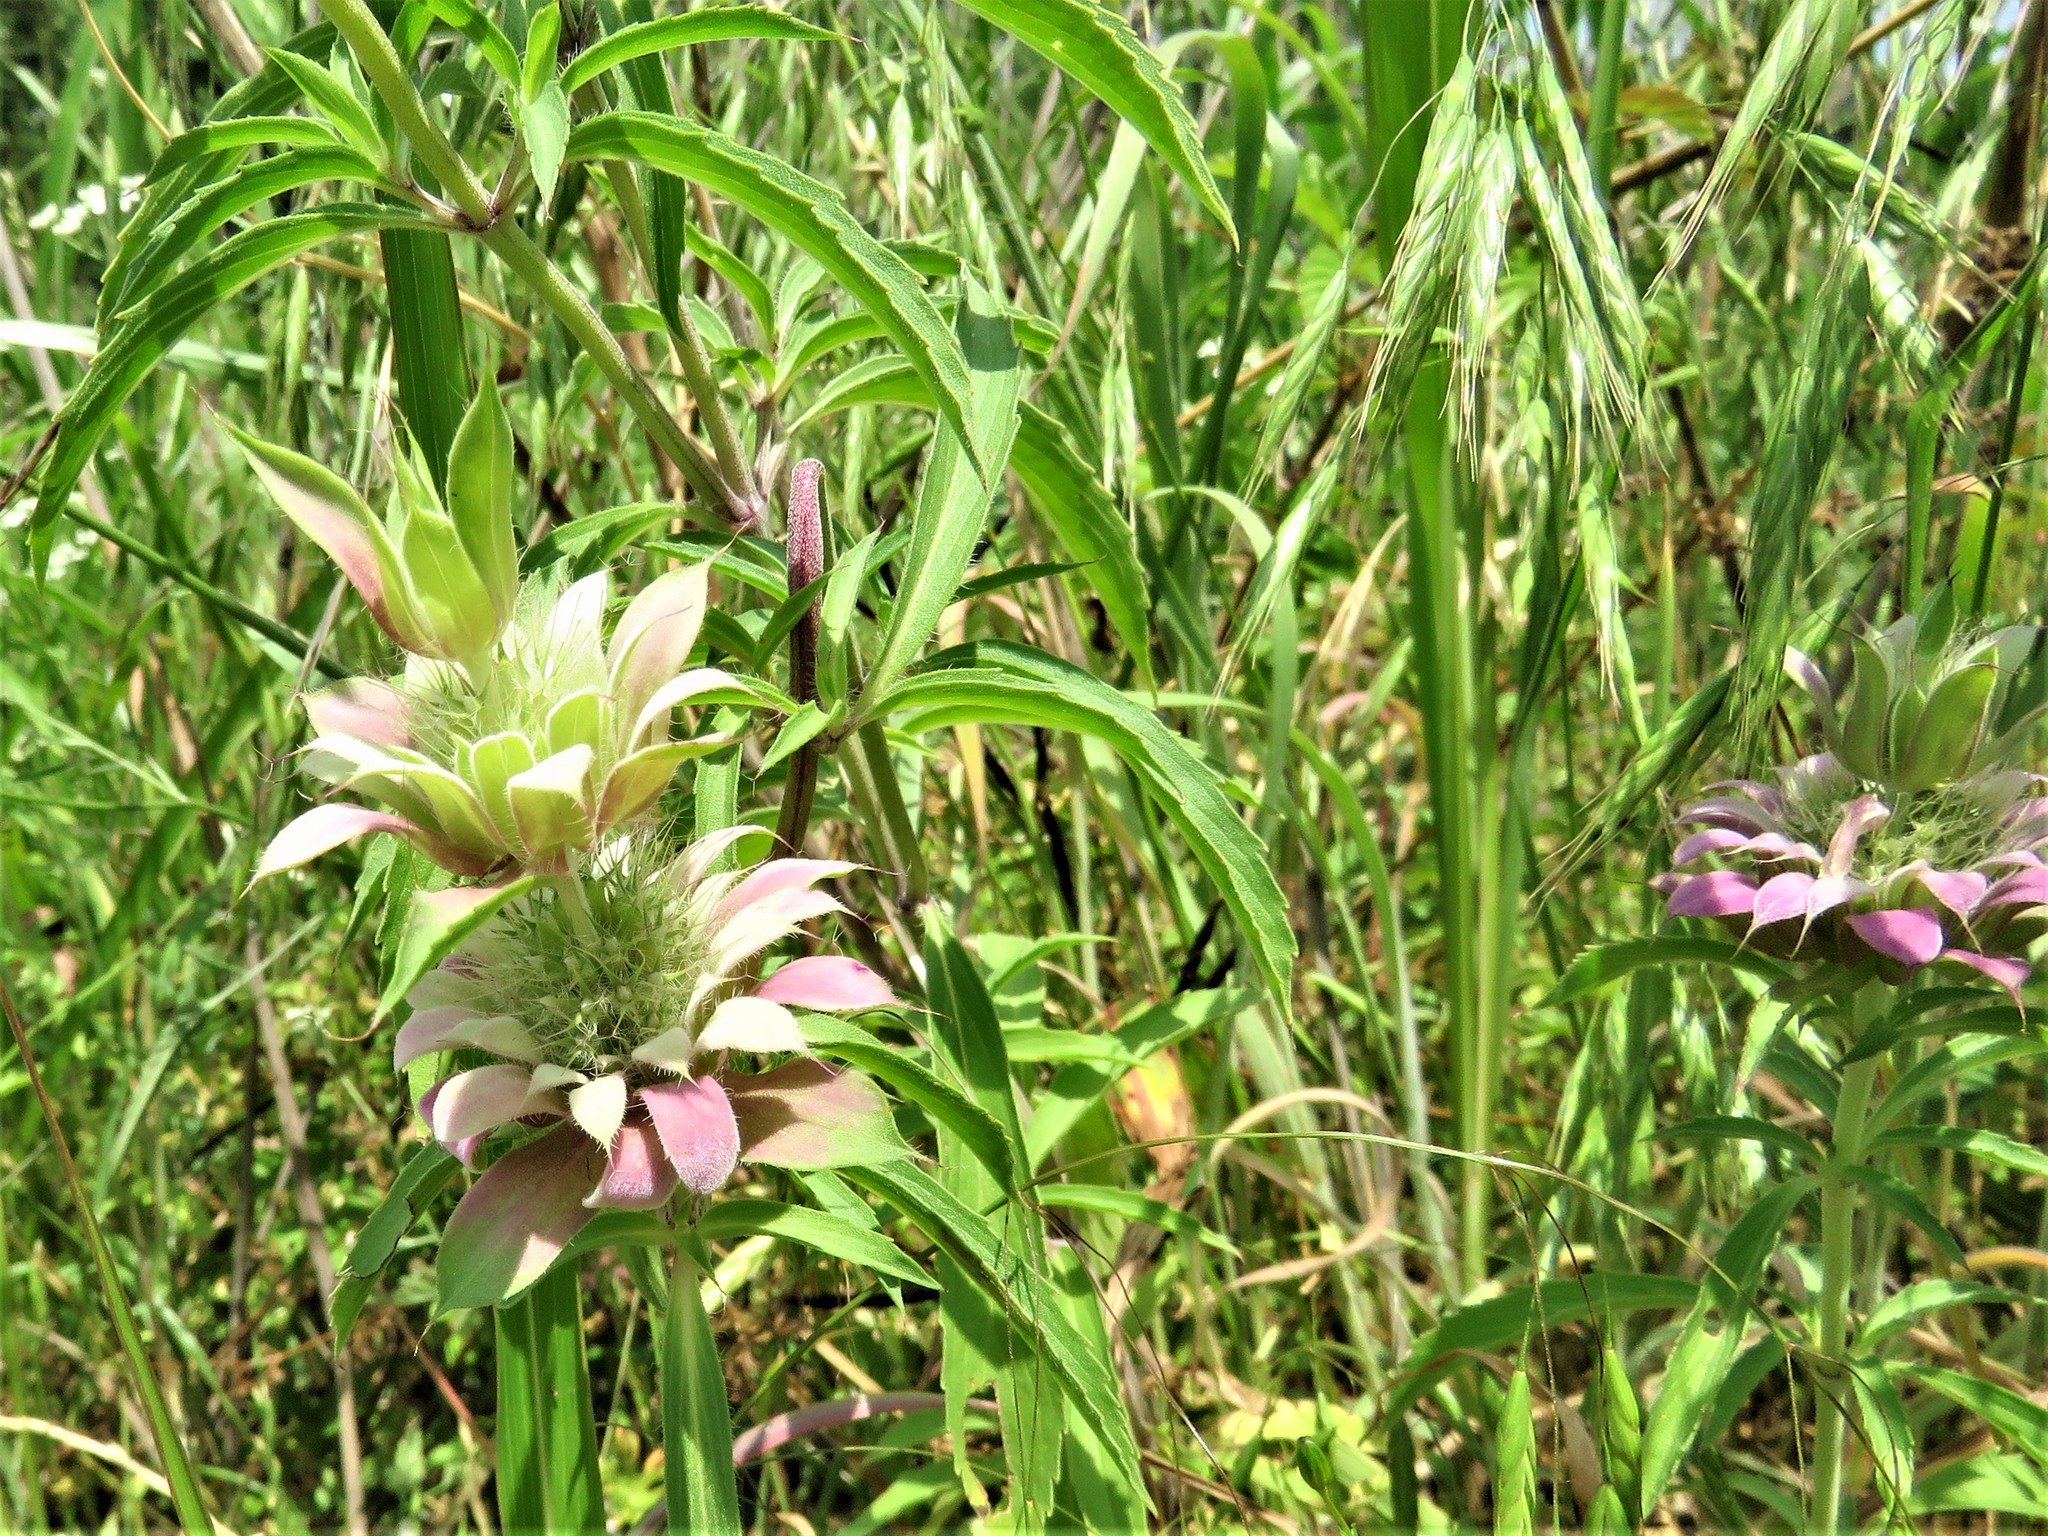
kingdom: Plantae
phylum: Tracheophyta
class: Magnoliopsida
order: Lamiales
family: Lamiaceae
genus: Monarda
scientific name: Monarda citriodora
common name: Lemon beebalm
